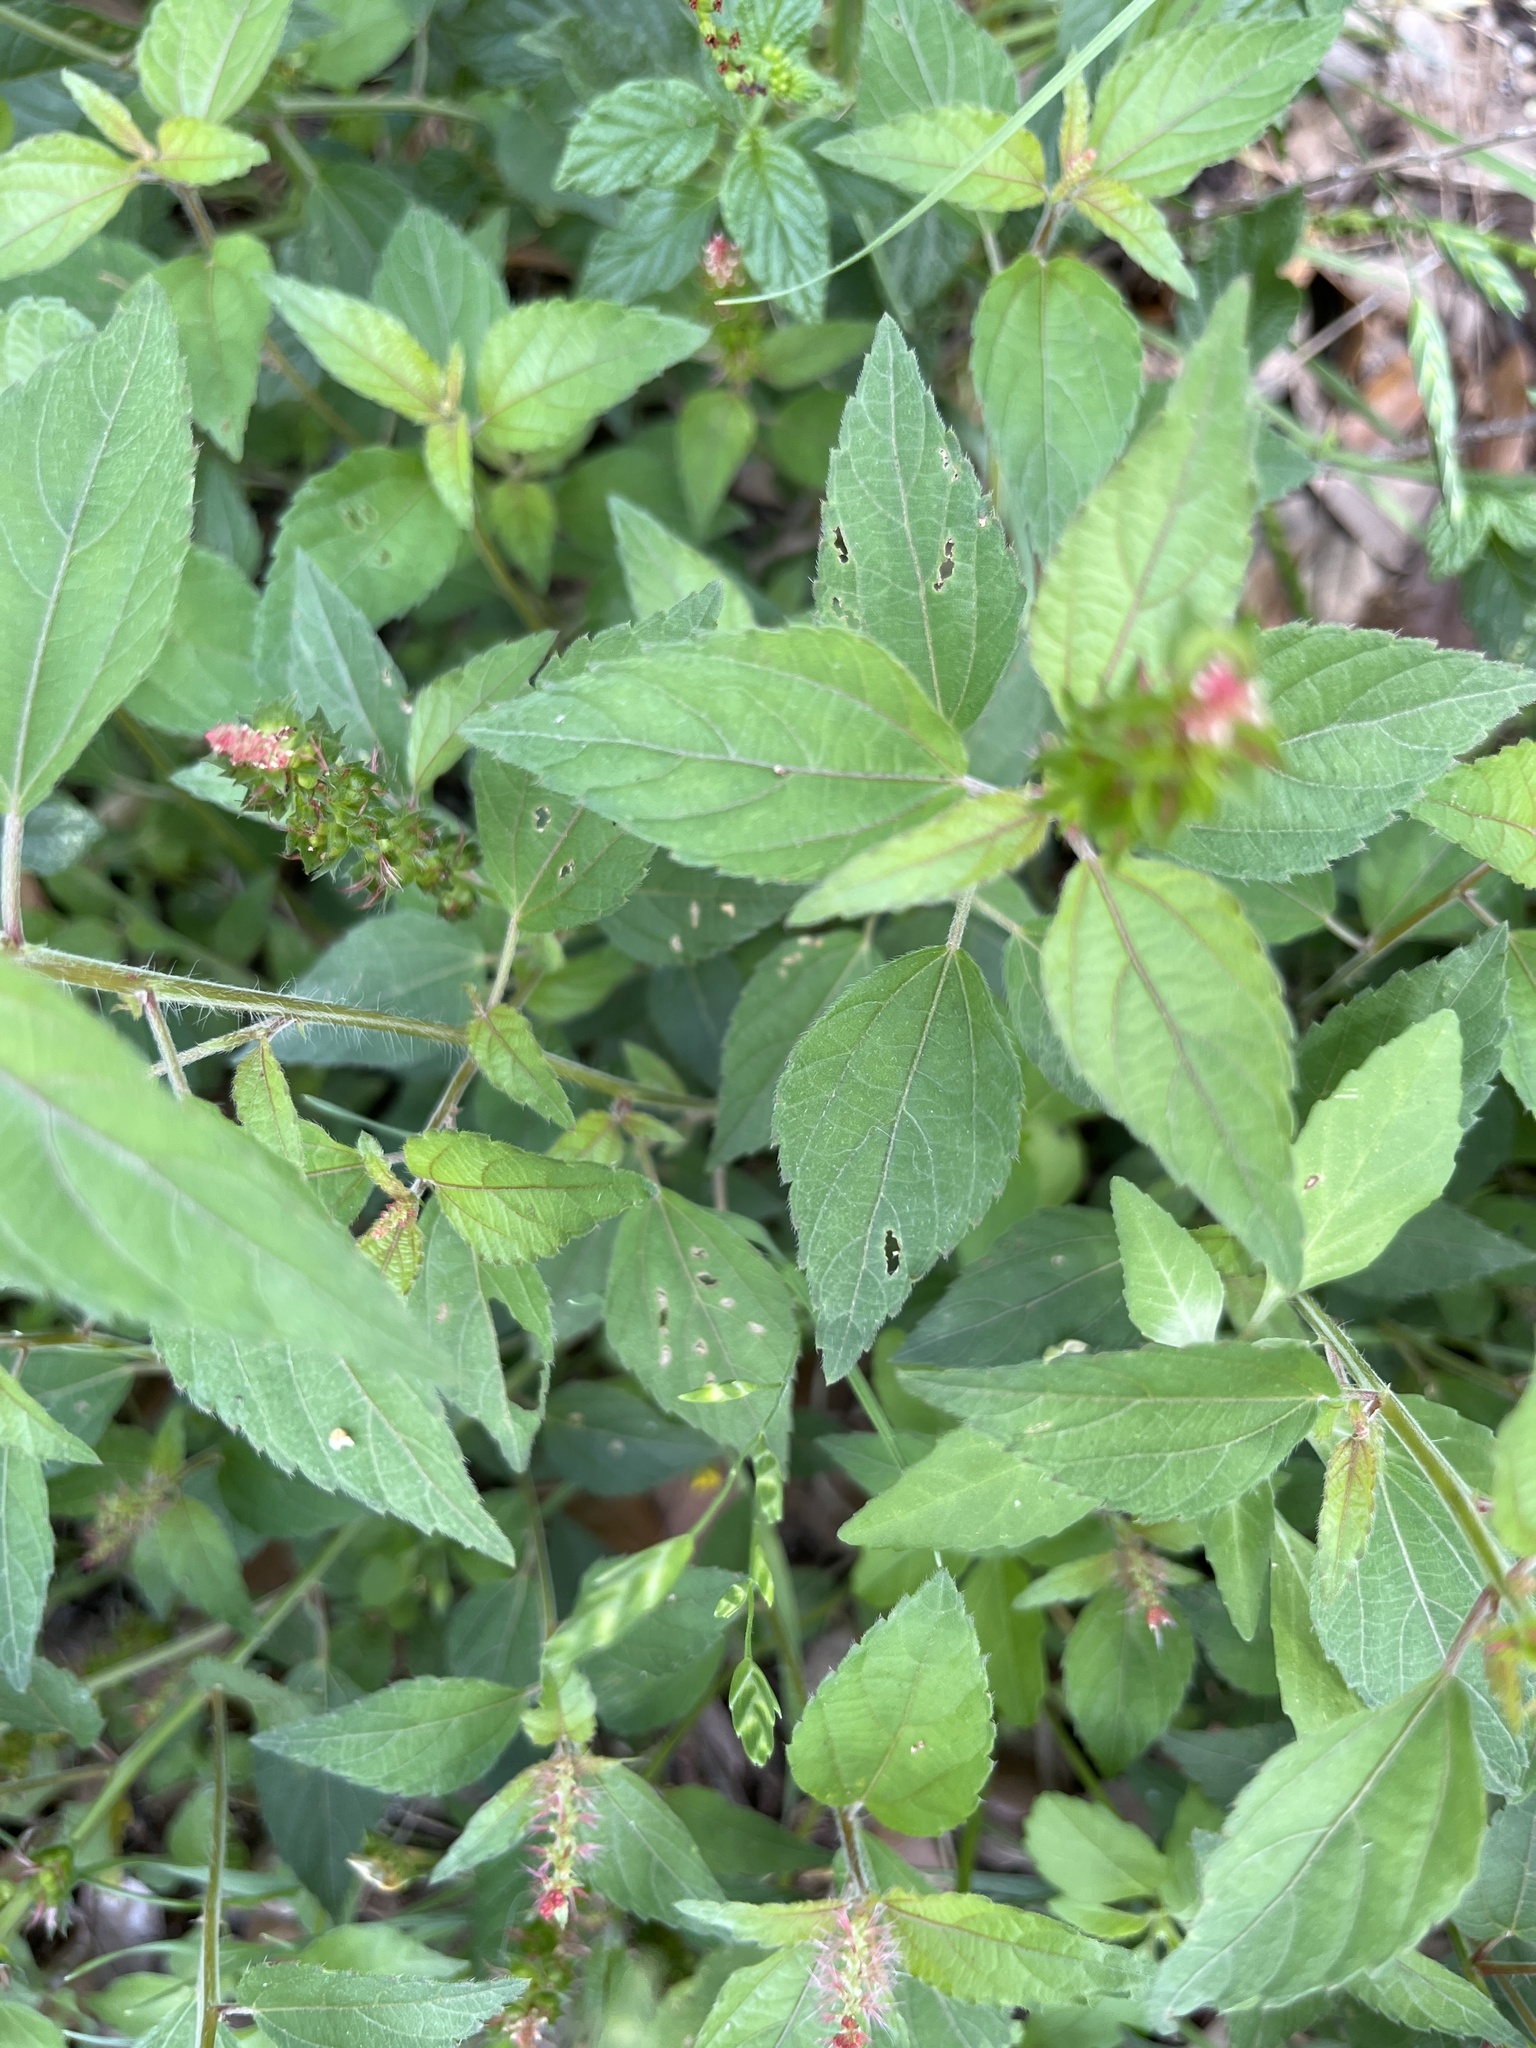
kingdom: Plantae
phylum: Tracheophyta
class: Magnoliopsida
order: Malpighiales
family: Euphorbiaceae
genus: Acalypha
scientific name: Acalypha phleoides
